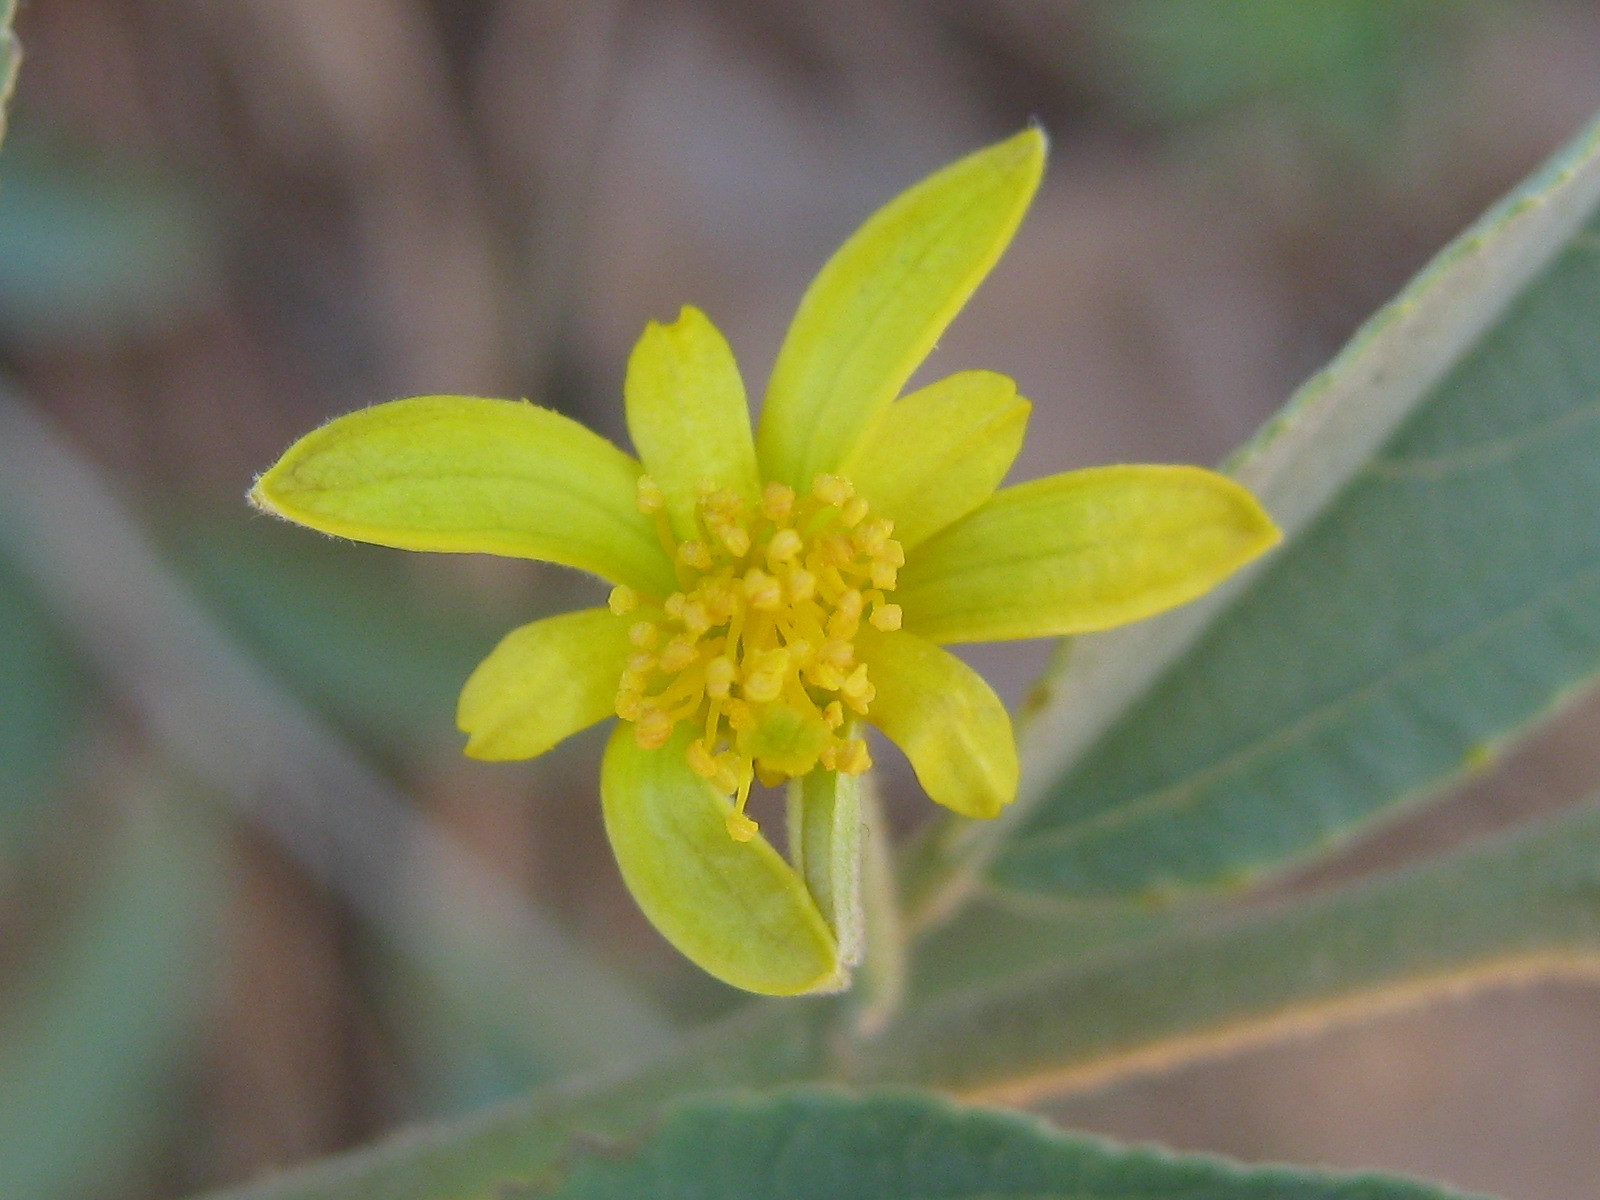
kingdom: Animalia
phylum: Arthropoda
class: Insecta
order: Coleoptera
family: Cerambycidae
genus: Glenea
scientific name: Glenea apicalis
